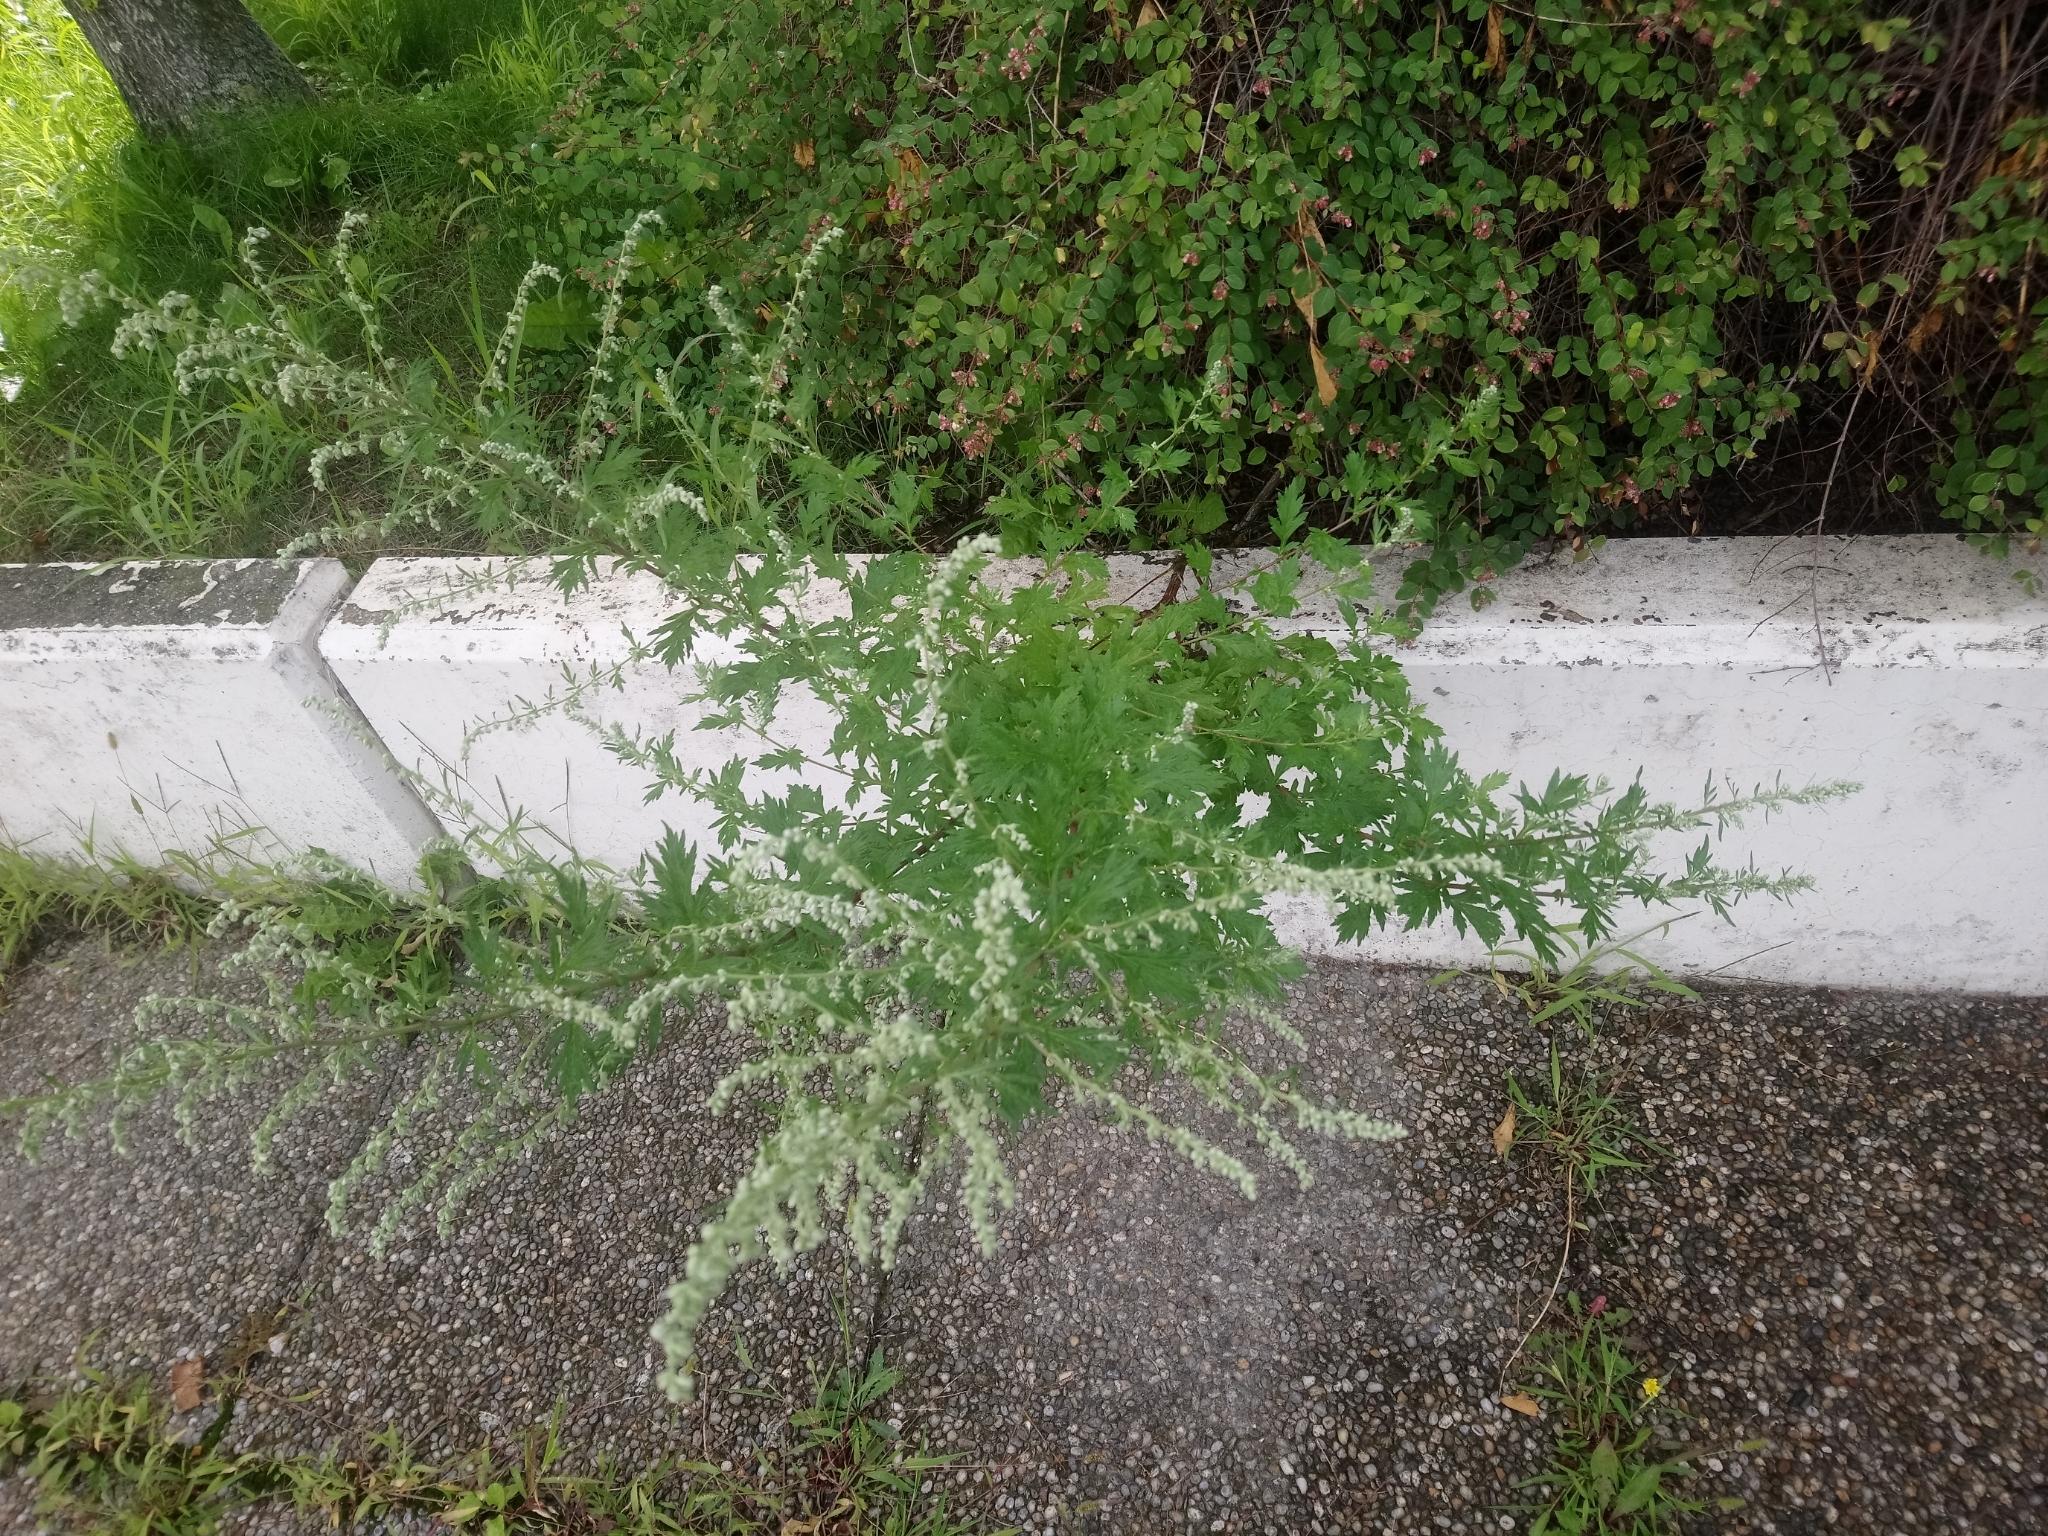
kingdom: Plantae
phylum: Tracheophyta
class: Magnoliopsida
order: Asterales
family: Asteraceae
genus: Artemisia
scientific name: Artemisia vulgaris
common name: Mugwort
